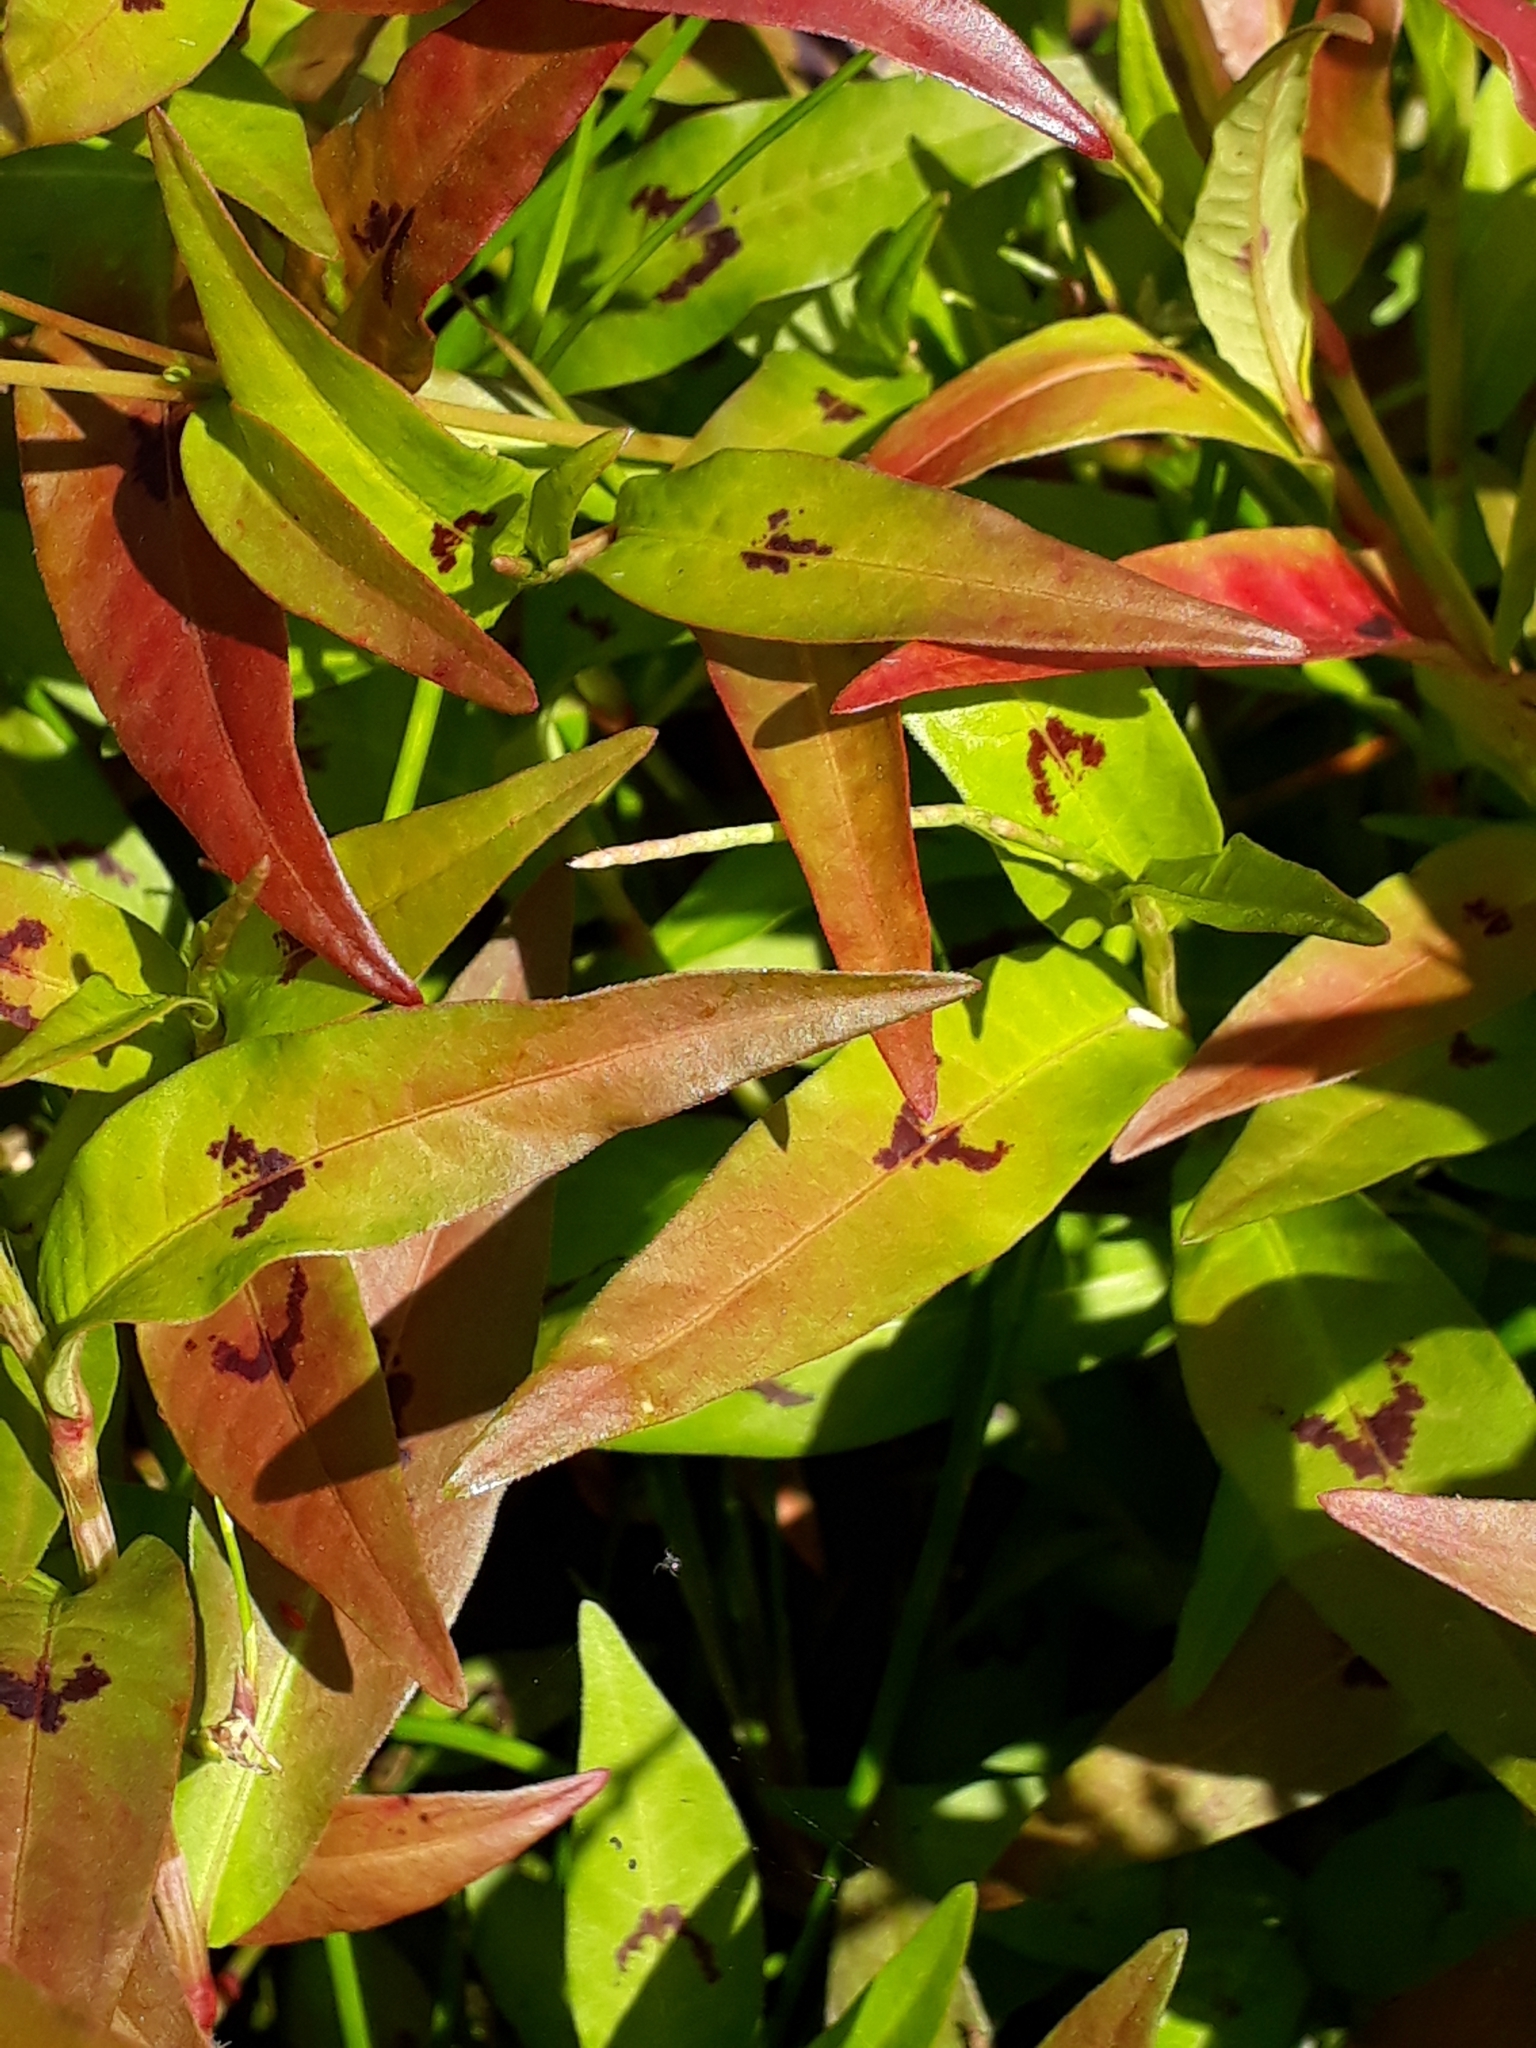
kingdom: Plantae
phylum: Tracheophyta
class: Magnoliopsida
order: Caryophyllales
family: Polygonaceae
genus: Persicaria
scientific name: Persicaria decipiens
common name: Willow-weed
